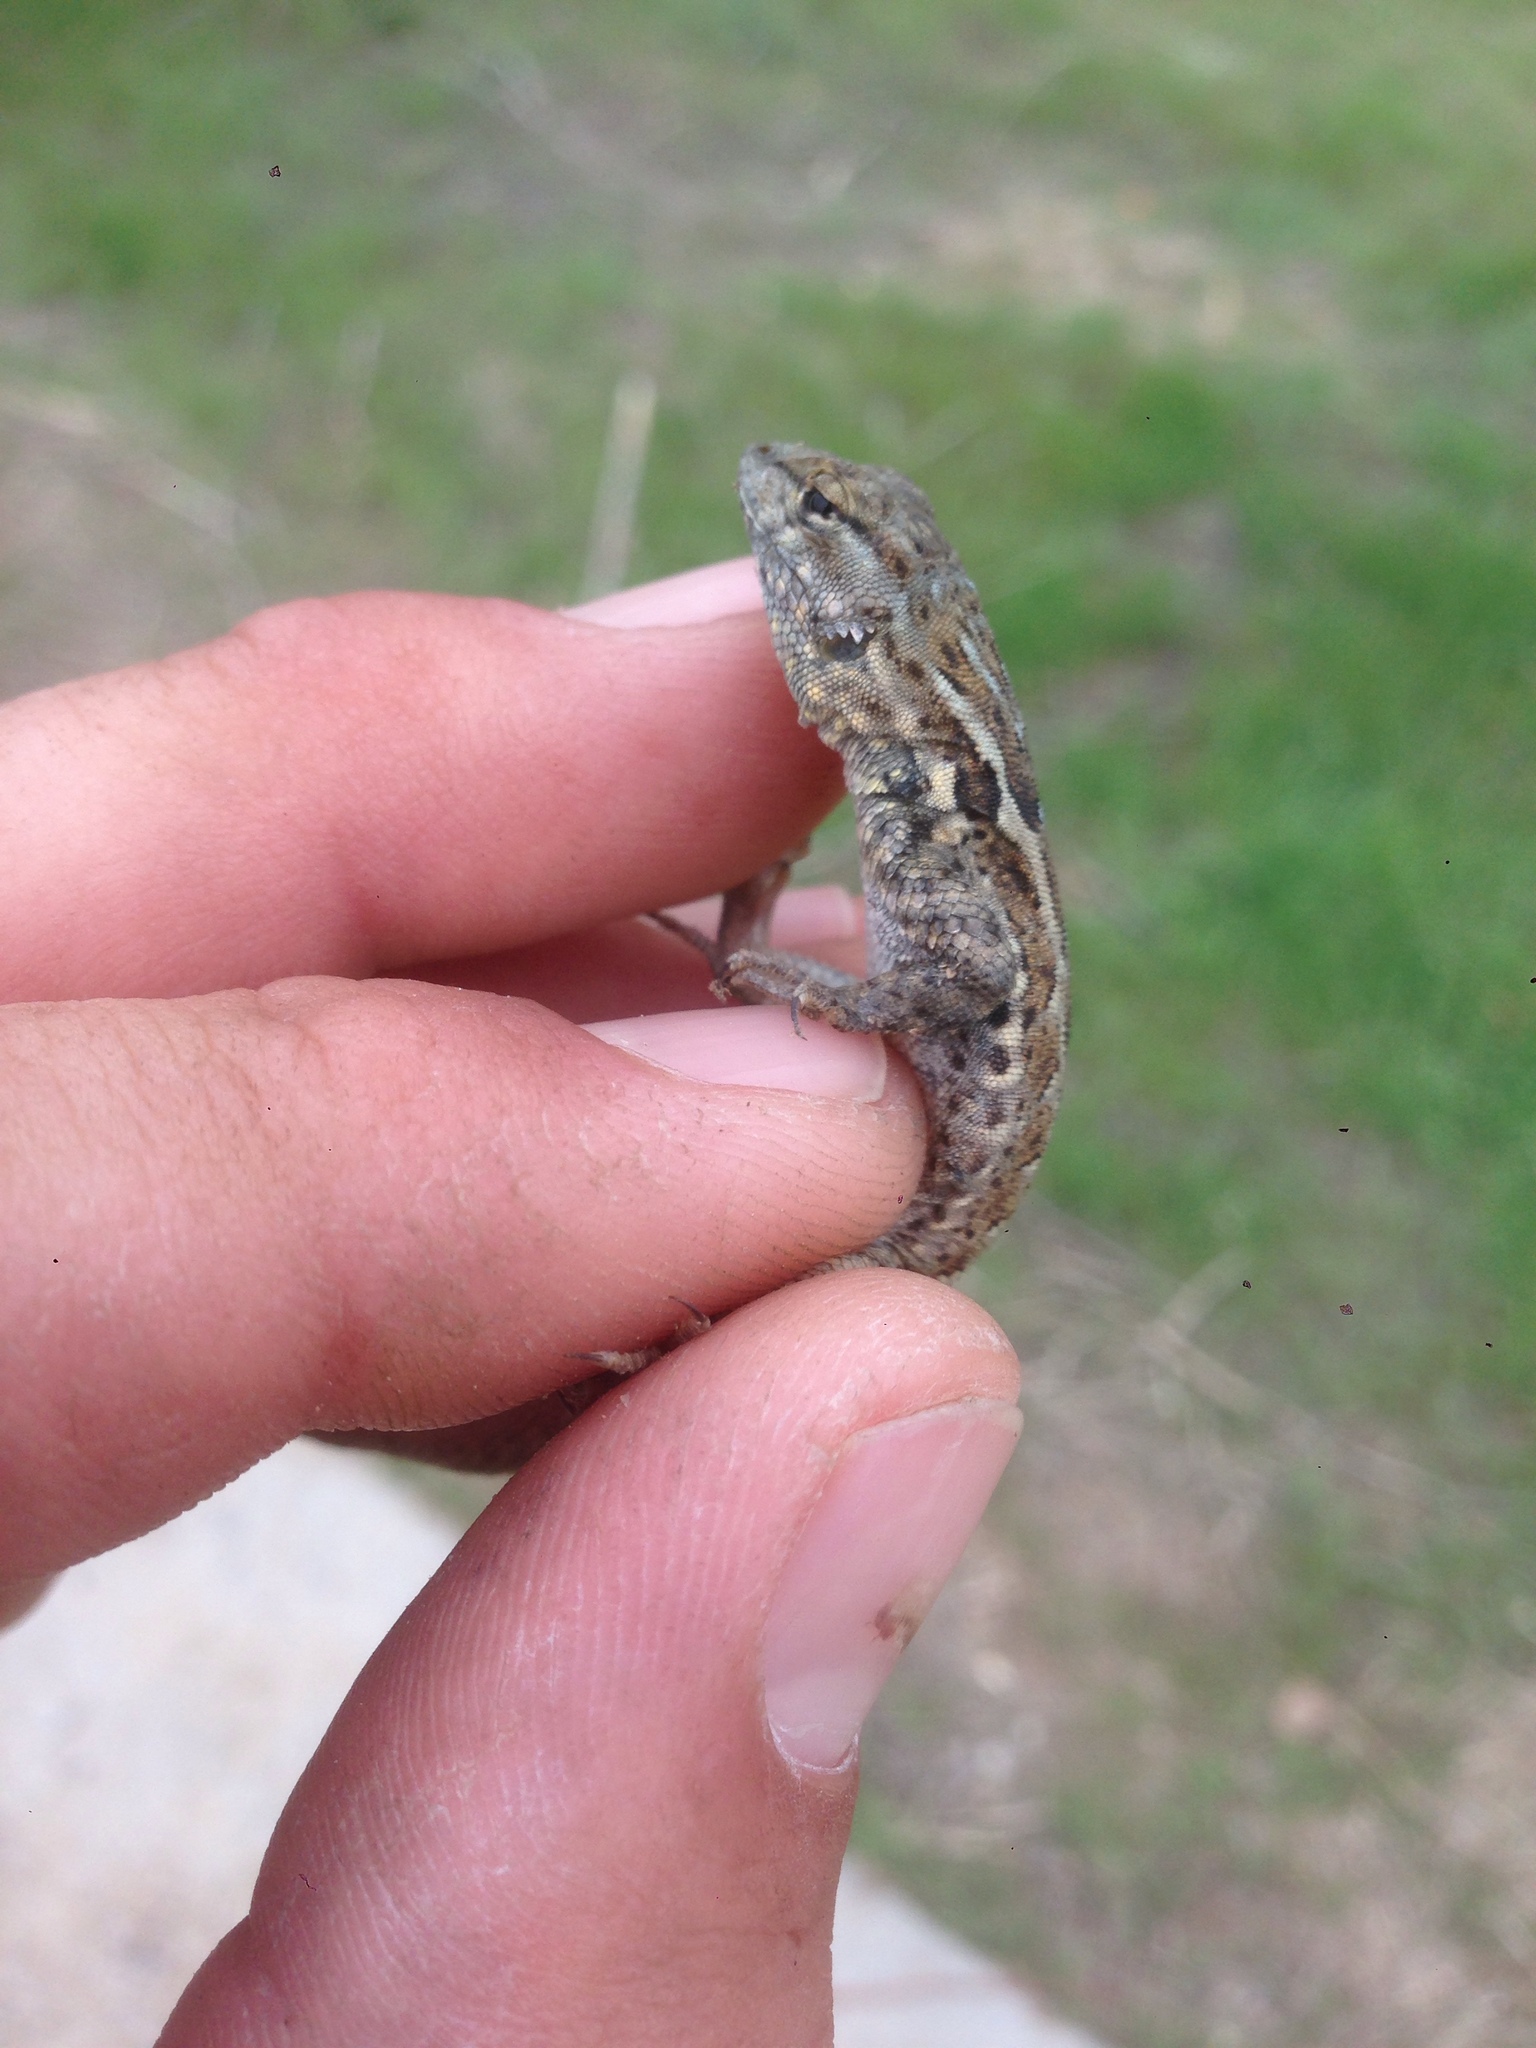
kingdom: Animalia
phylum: Chordata
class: Squamata
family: Phrynosomatidae
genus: Uta
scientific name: Uta stansburiana
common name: Side-blotched lizard
